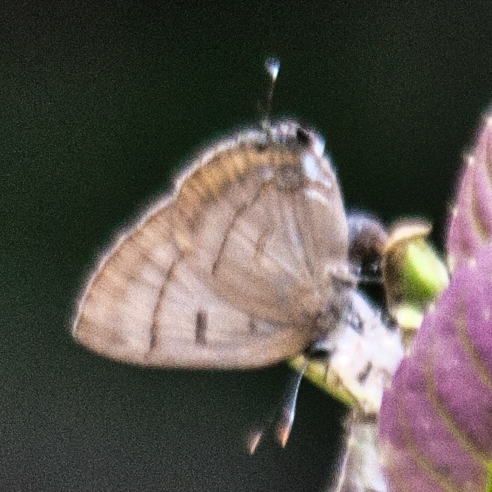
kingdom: Animalia
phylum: Arthropoda
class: Insecta
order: Lepidoptera
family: Lycaenidae
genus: Rapala
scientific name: Rapala pheretima
